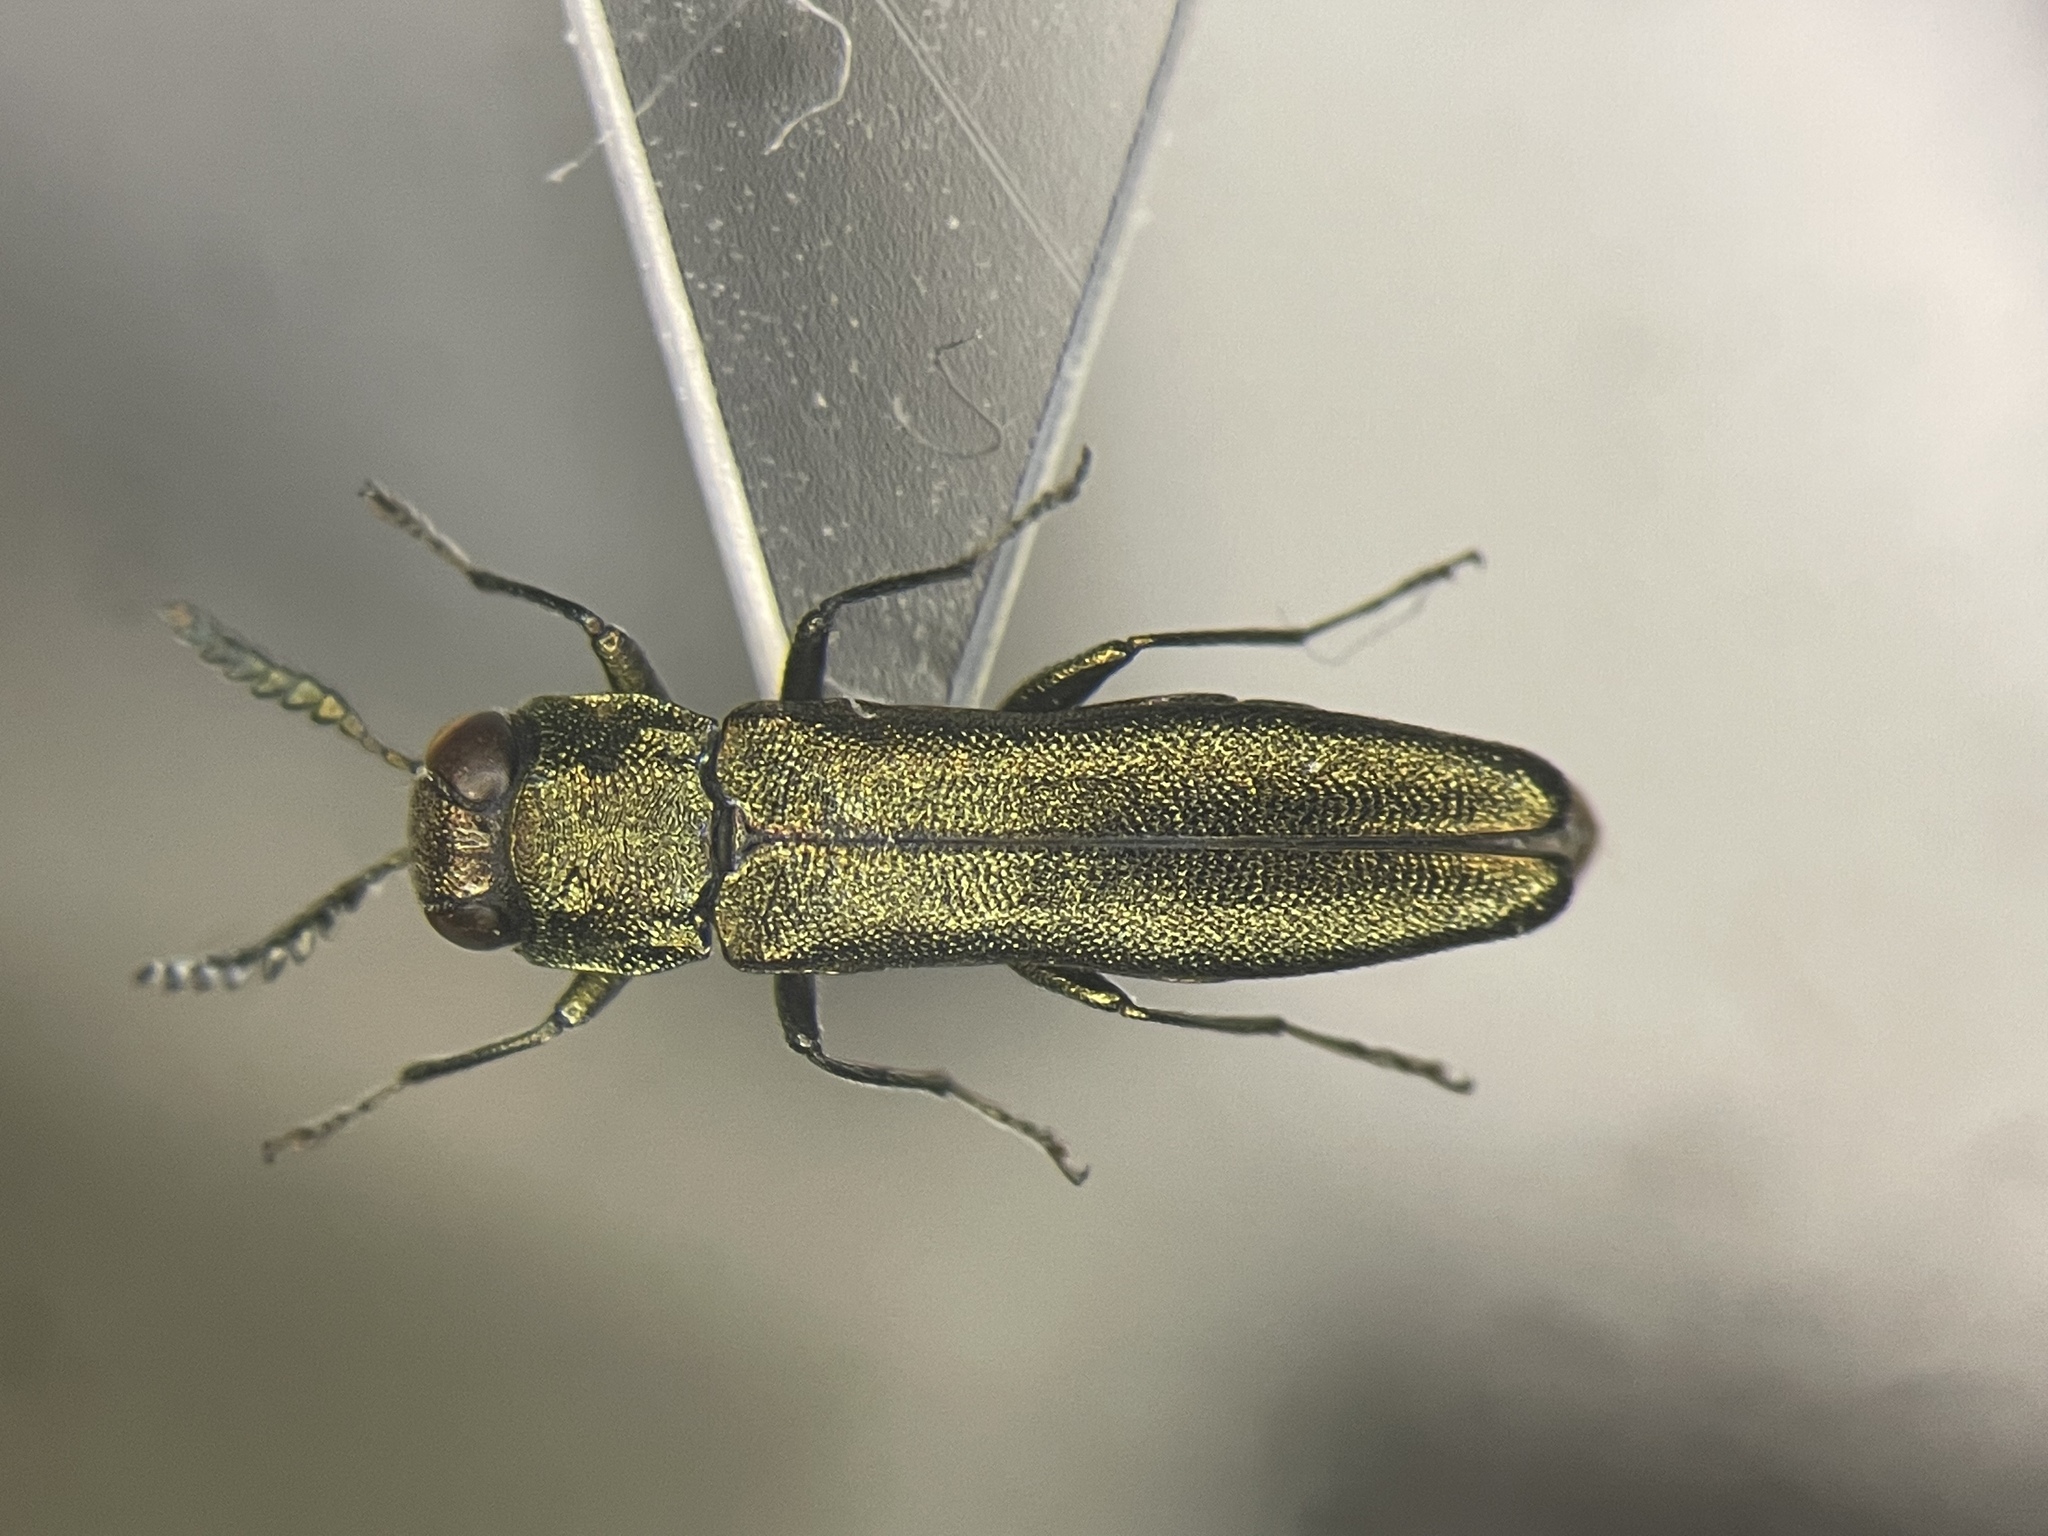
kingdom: Animalia
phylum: Arthropoda
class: Insecta
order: Coleoptera
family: Buprestidae
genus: Agrilus
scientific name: Agrilus laticornis
